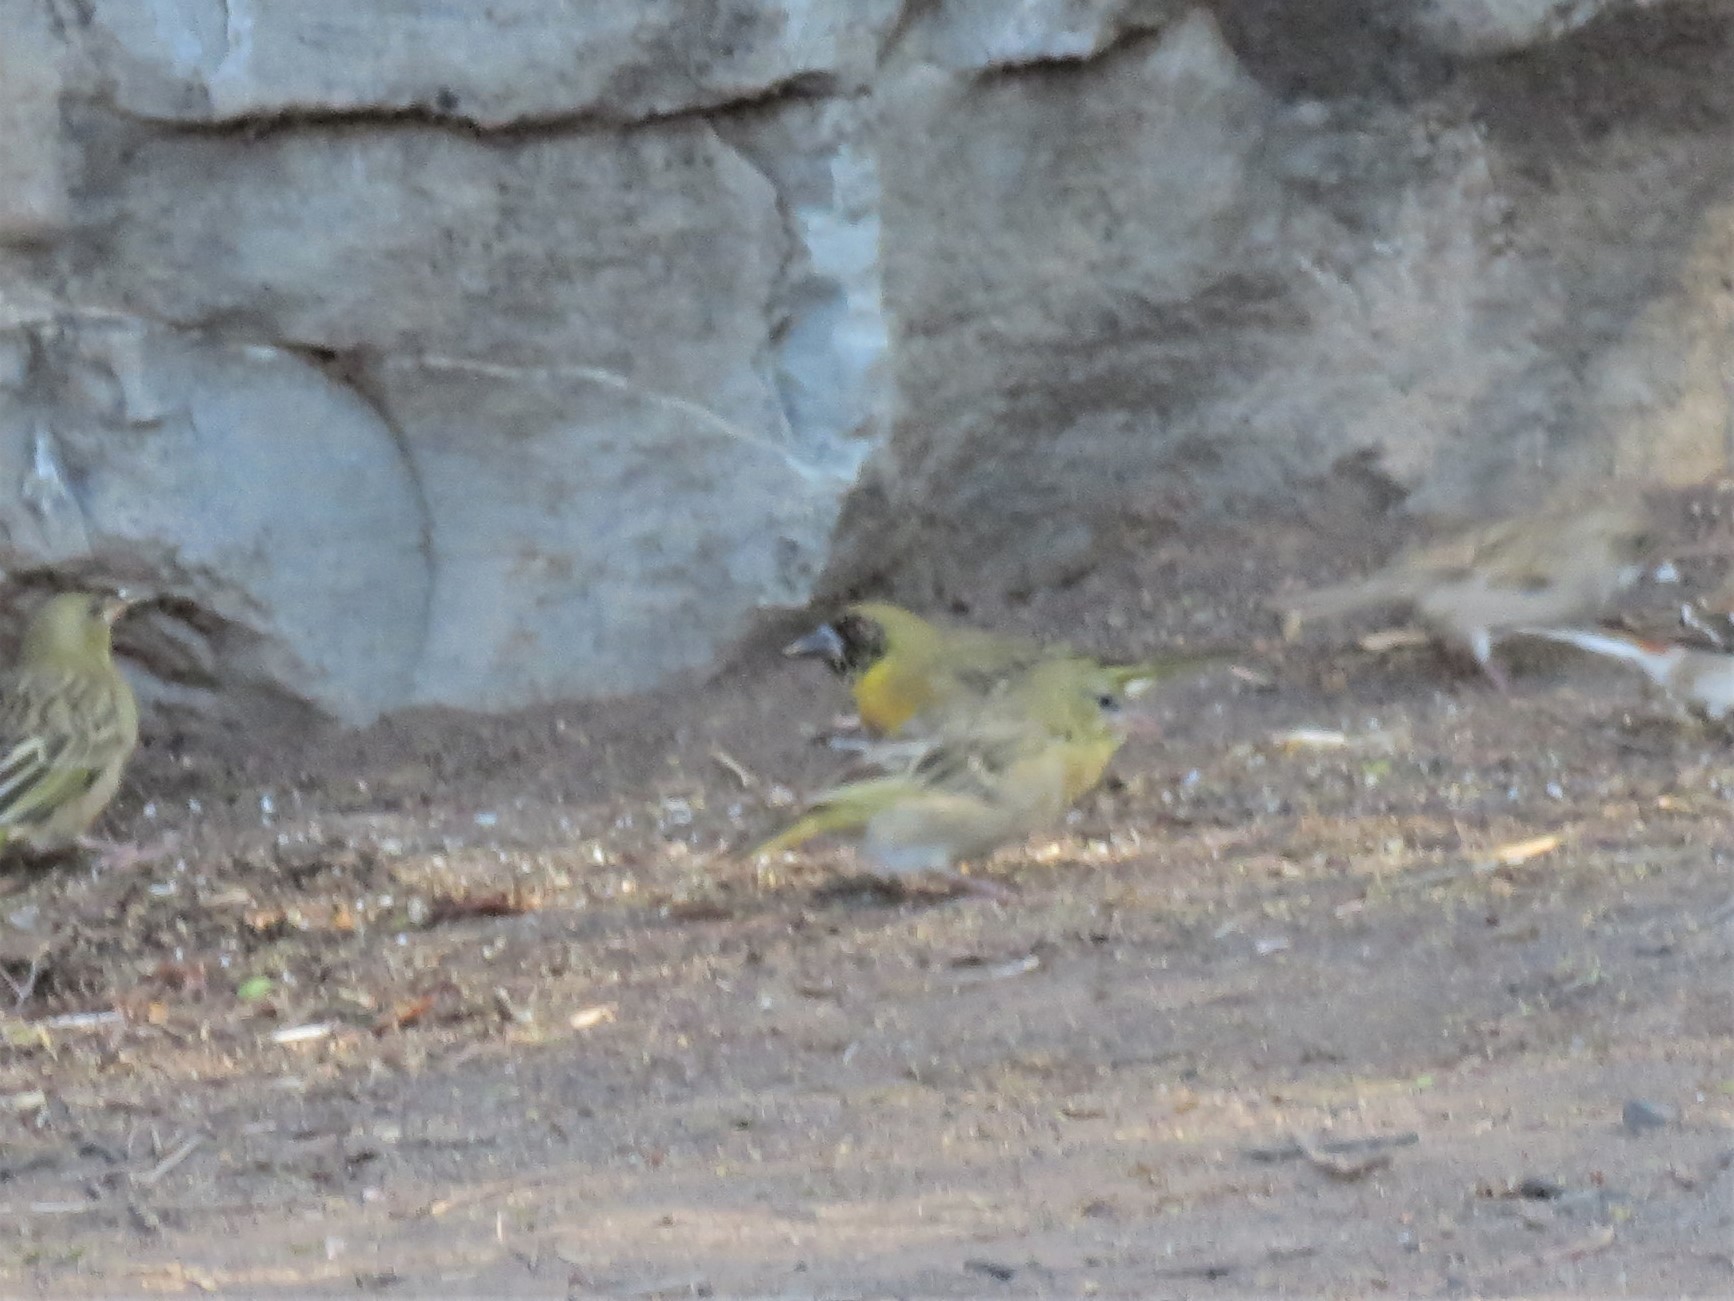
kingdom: Animalia
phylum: Chordata
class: Aves
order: Passeriformes
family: Ploceidae
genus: Ploceus
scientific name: Ploceus velatus
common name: Southern masked weaver
